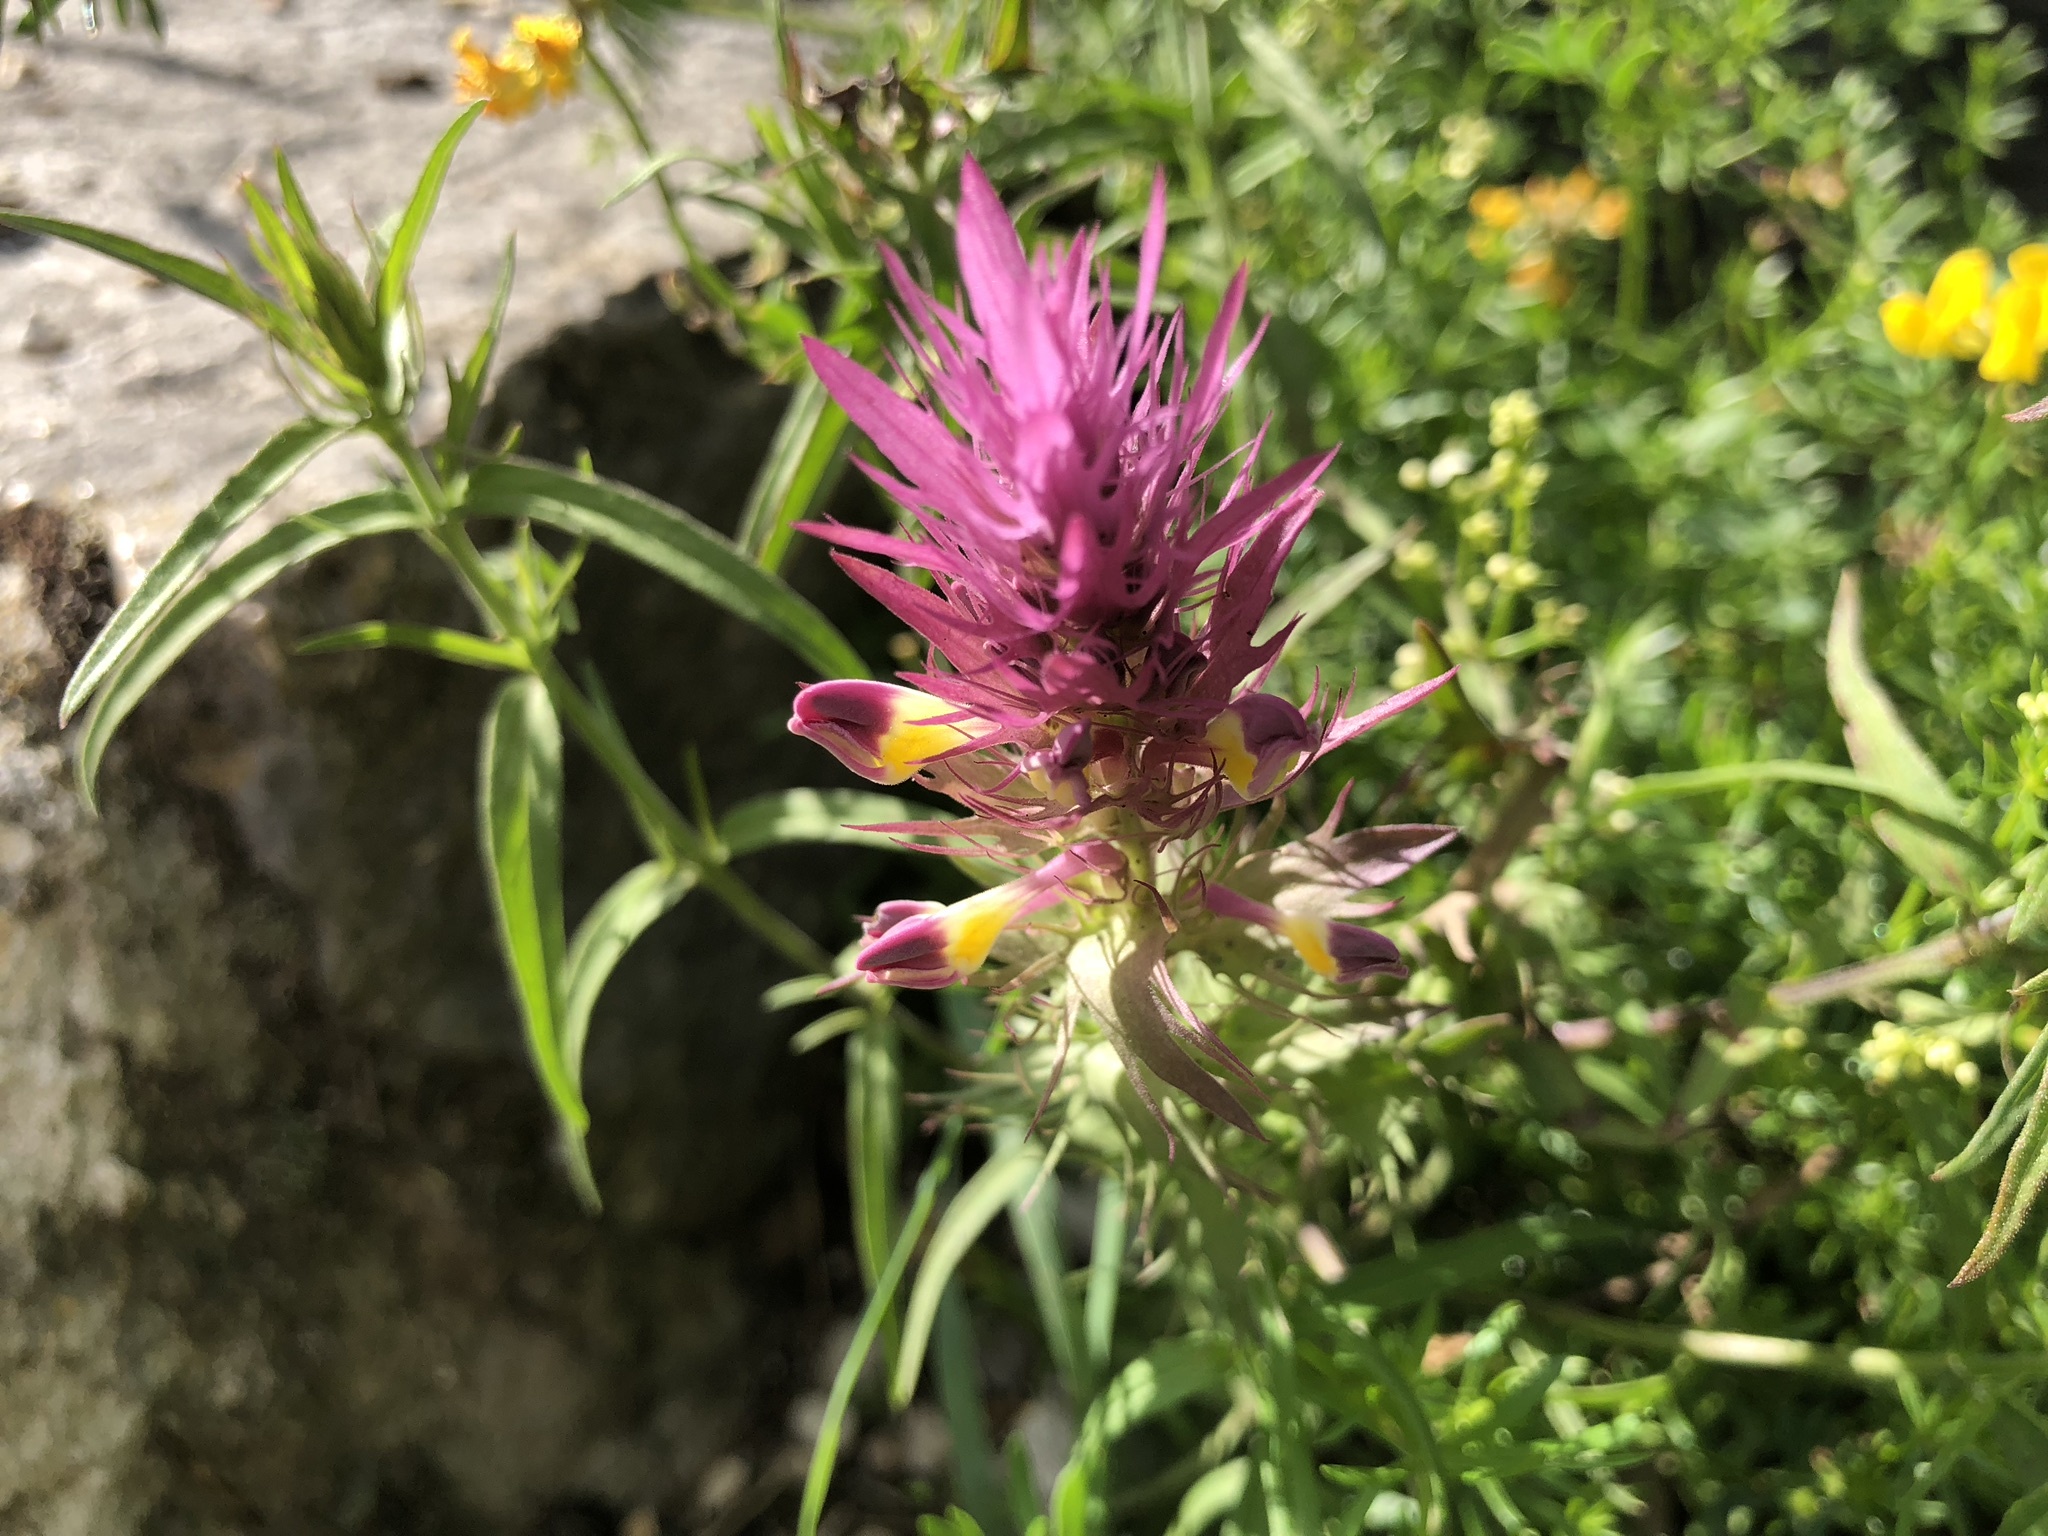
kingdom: Plantae
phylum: Tracheophyta
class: Magnoliopsida
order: Lamiales
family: Orobanchaceae
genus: Melampyrum
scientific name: Melampyrum arvense
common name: Field cow-wheat
